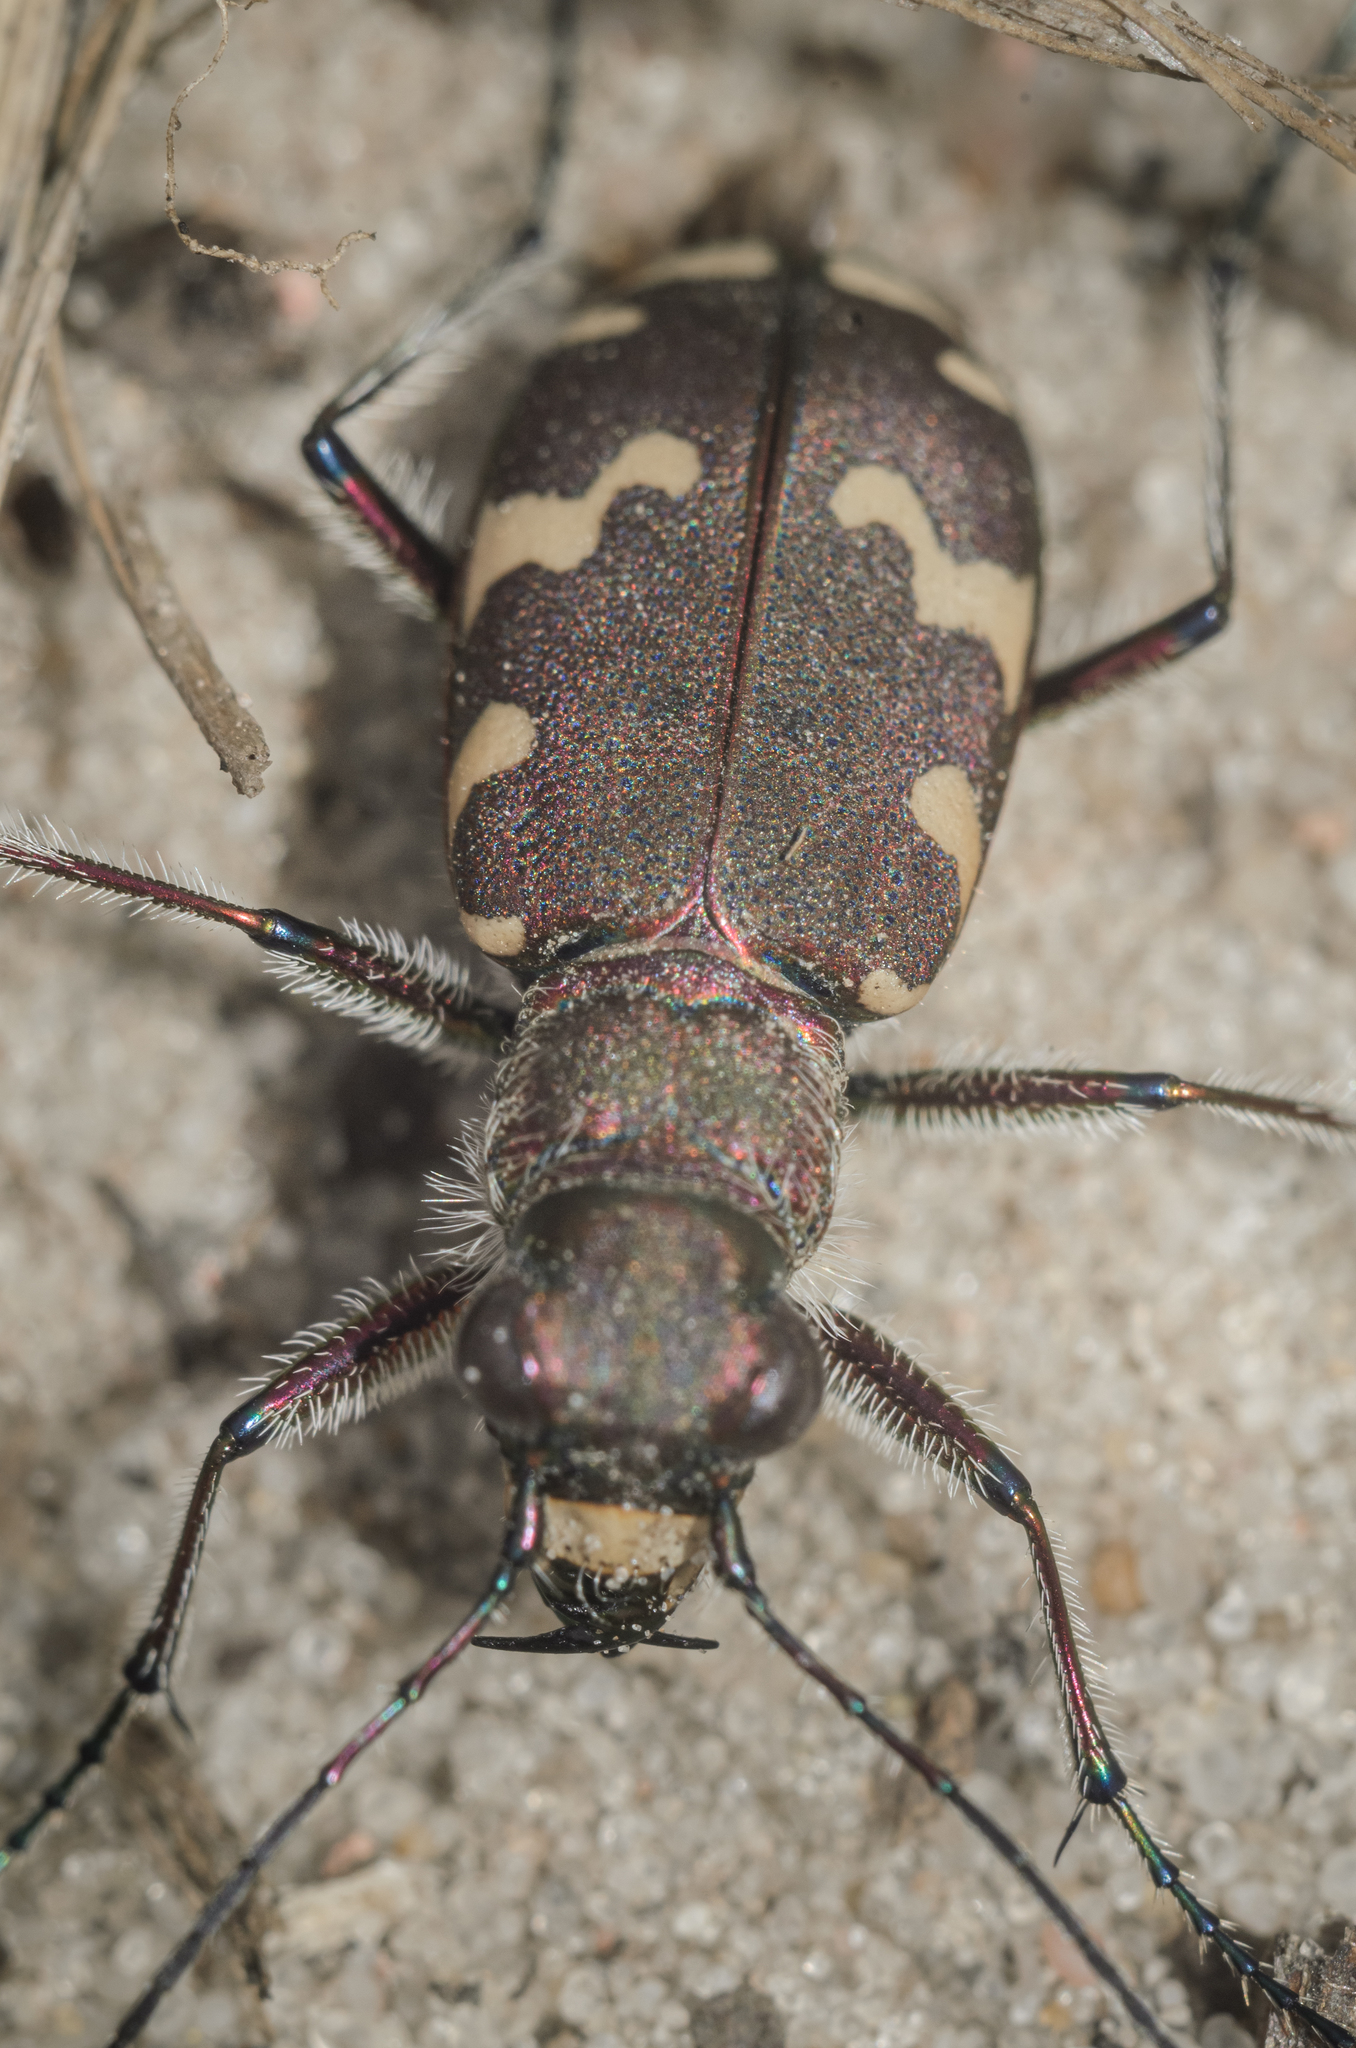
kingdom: Animalia
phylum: Arthropoda
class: Insecta
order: Coleoptera
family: Carabidae
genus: Cicindela
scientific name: Cicindela hybrida
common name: Northern dune tiger beetle
